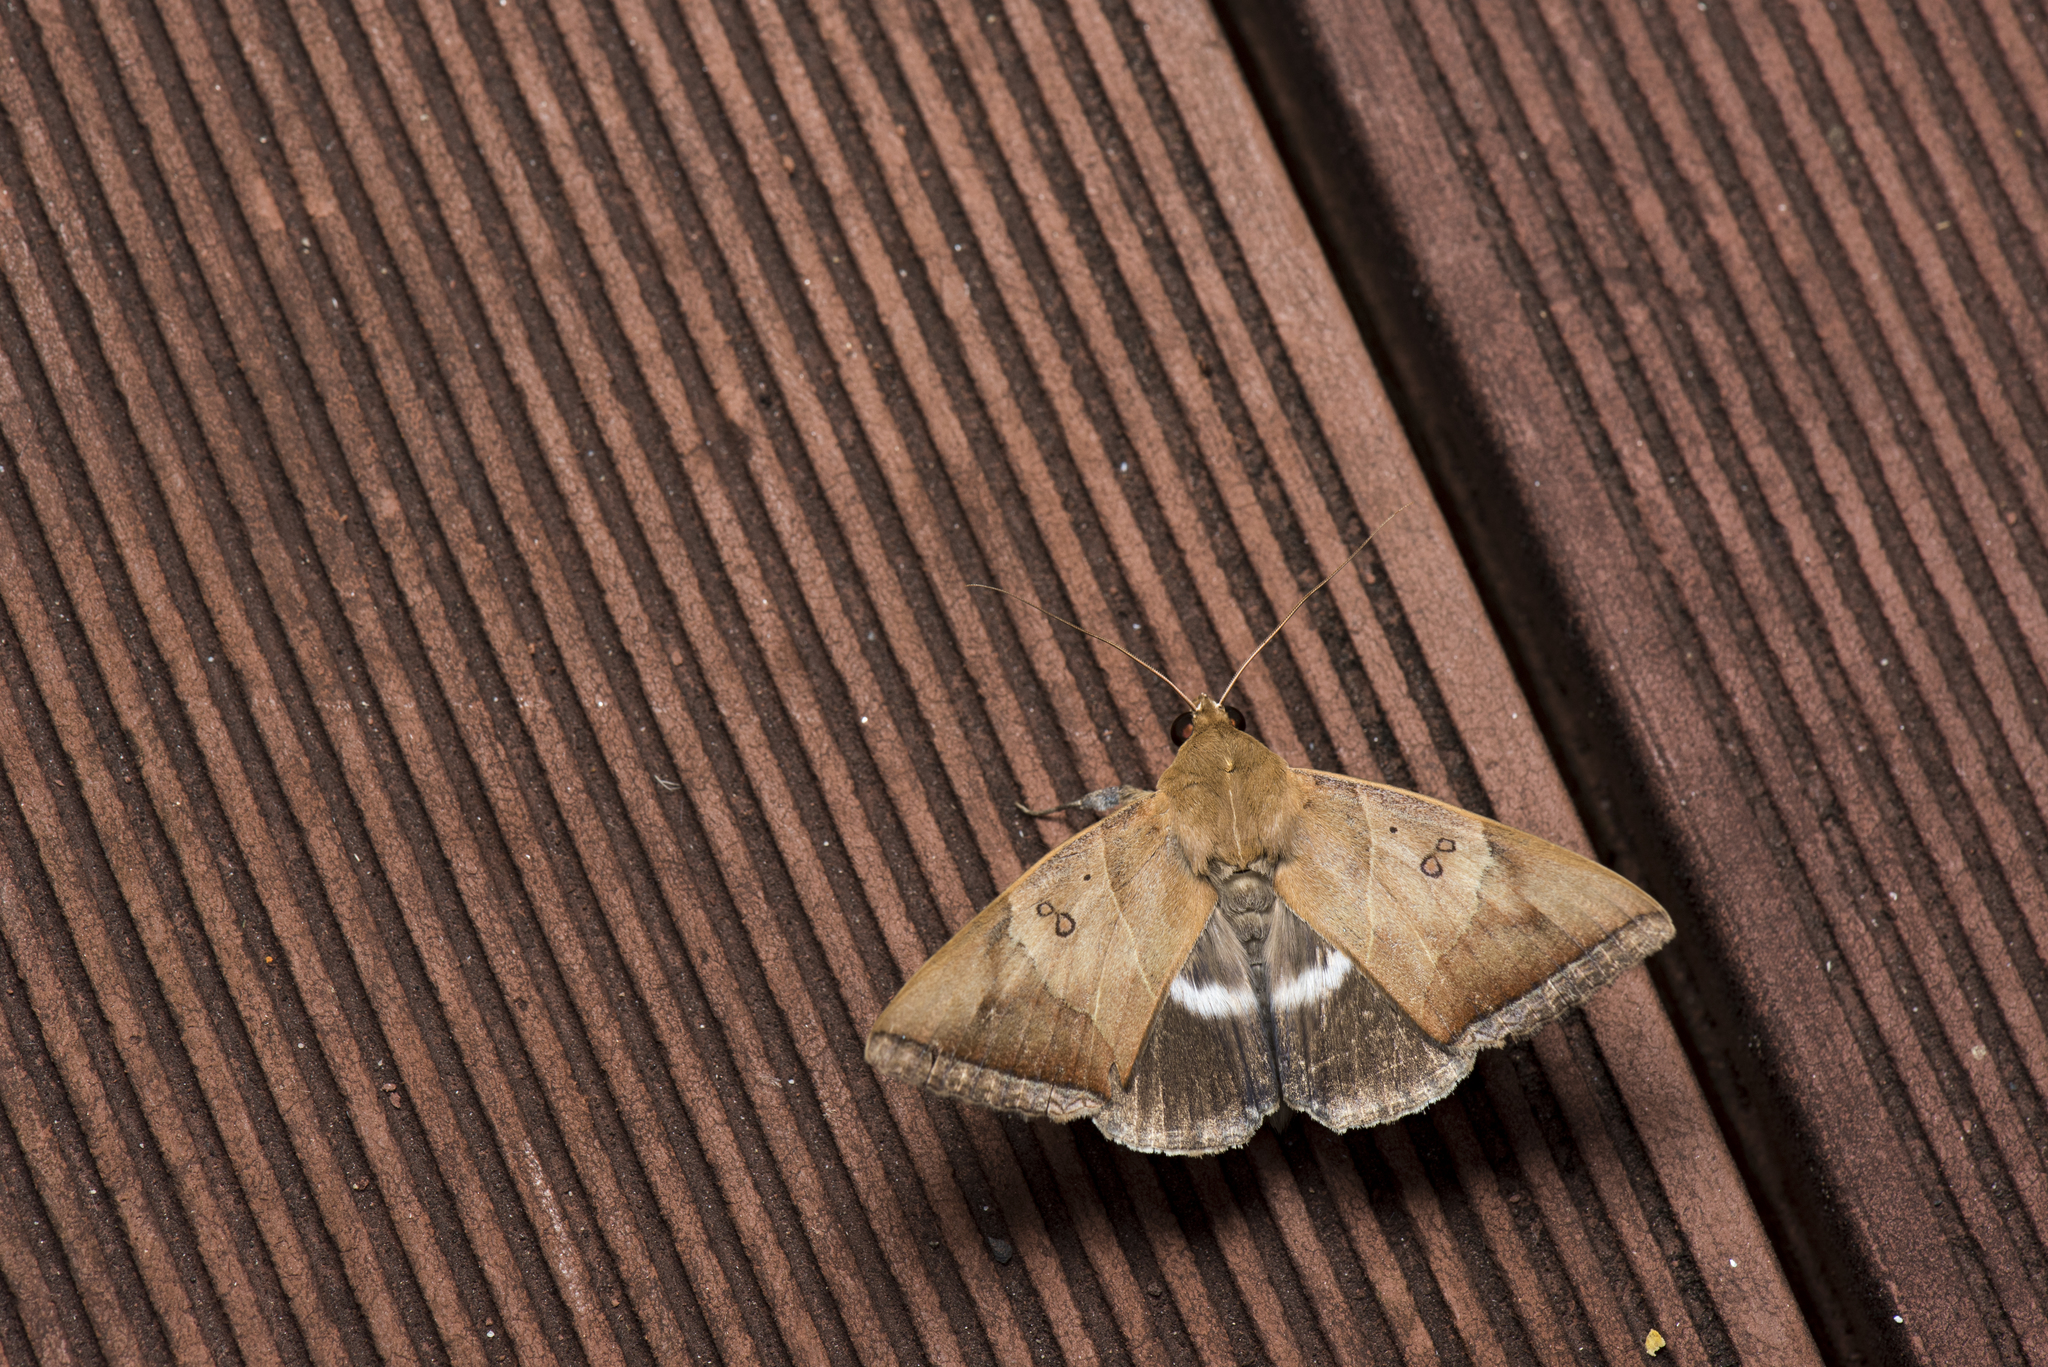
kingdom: Animalia
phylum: Arthropoda
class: Insecta
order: Lepidoptera
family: Erebidae
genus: Artena
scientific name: Artena dotata
